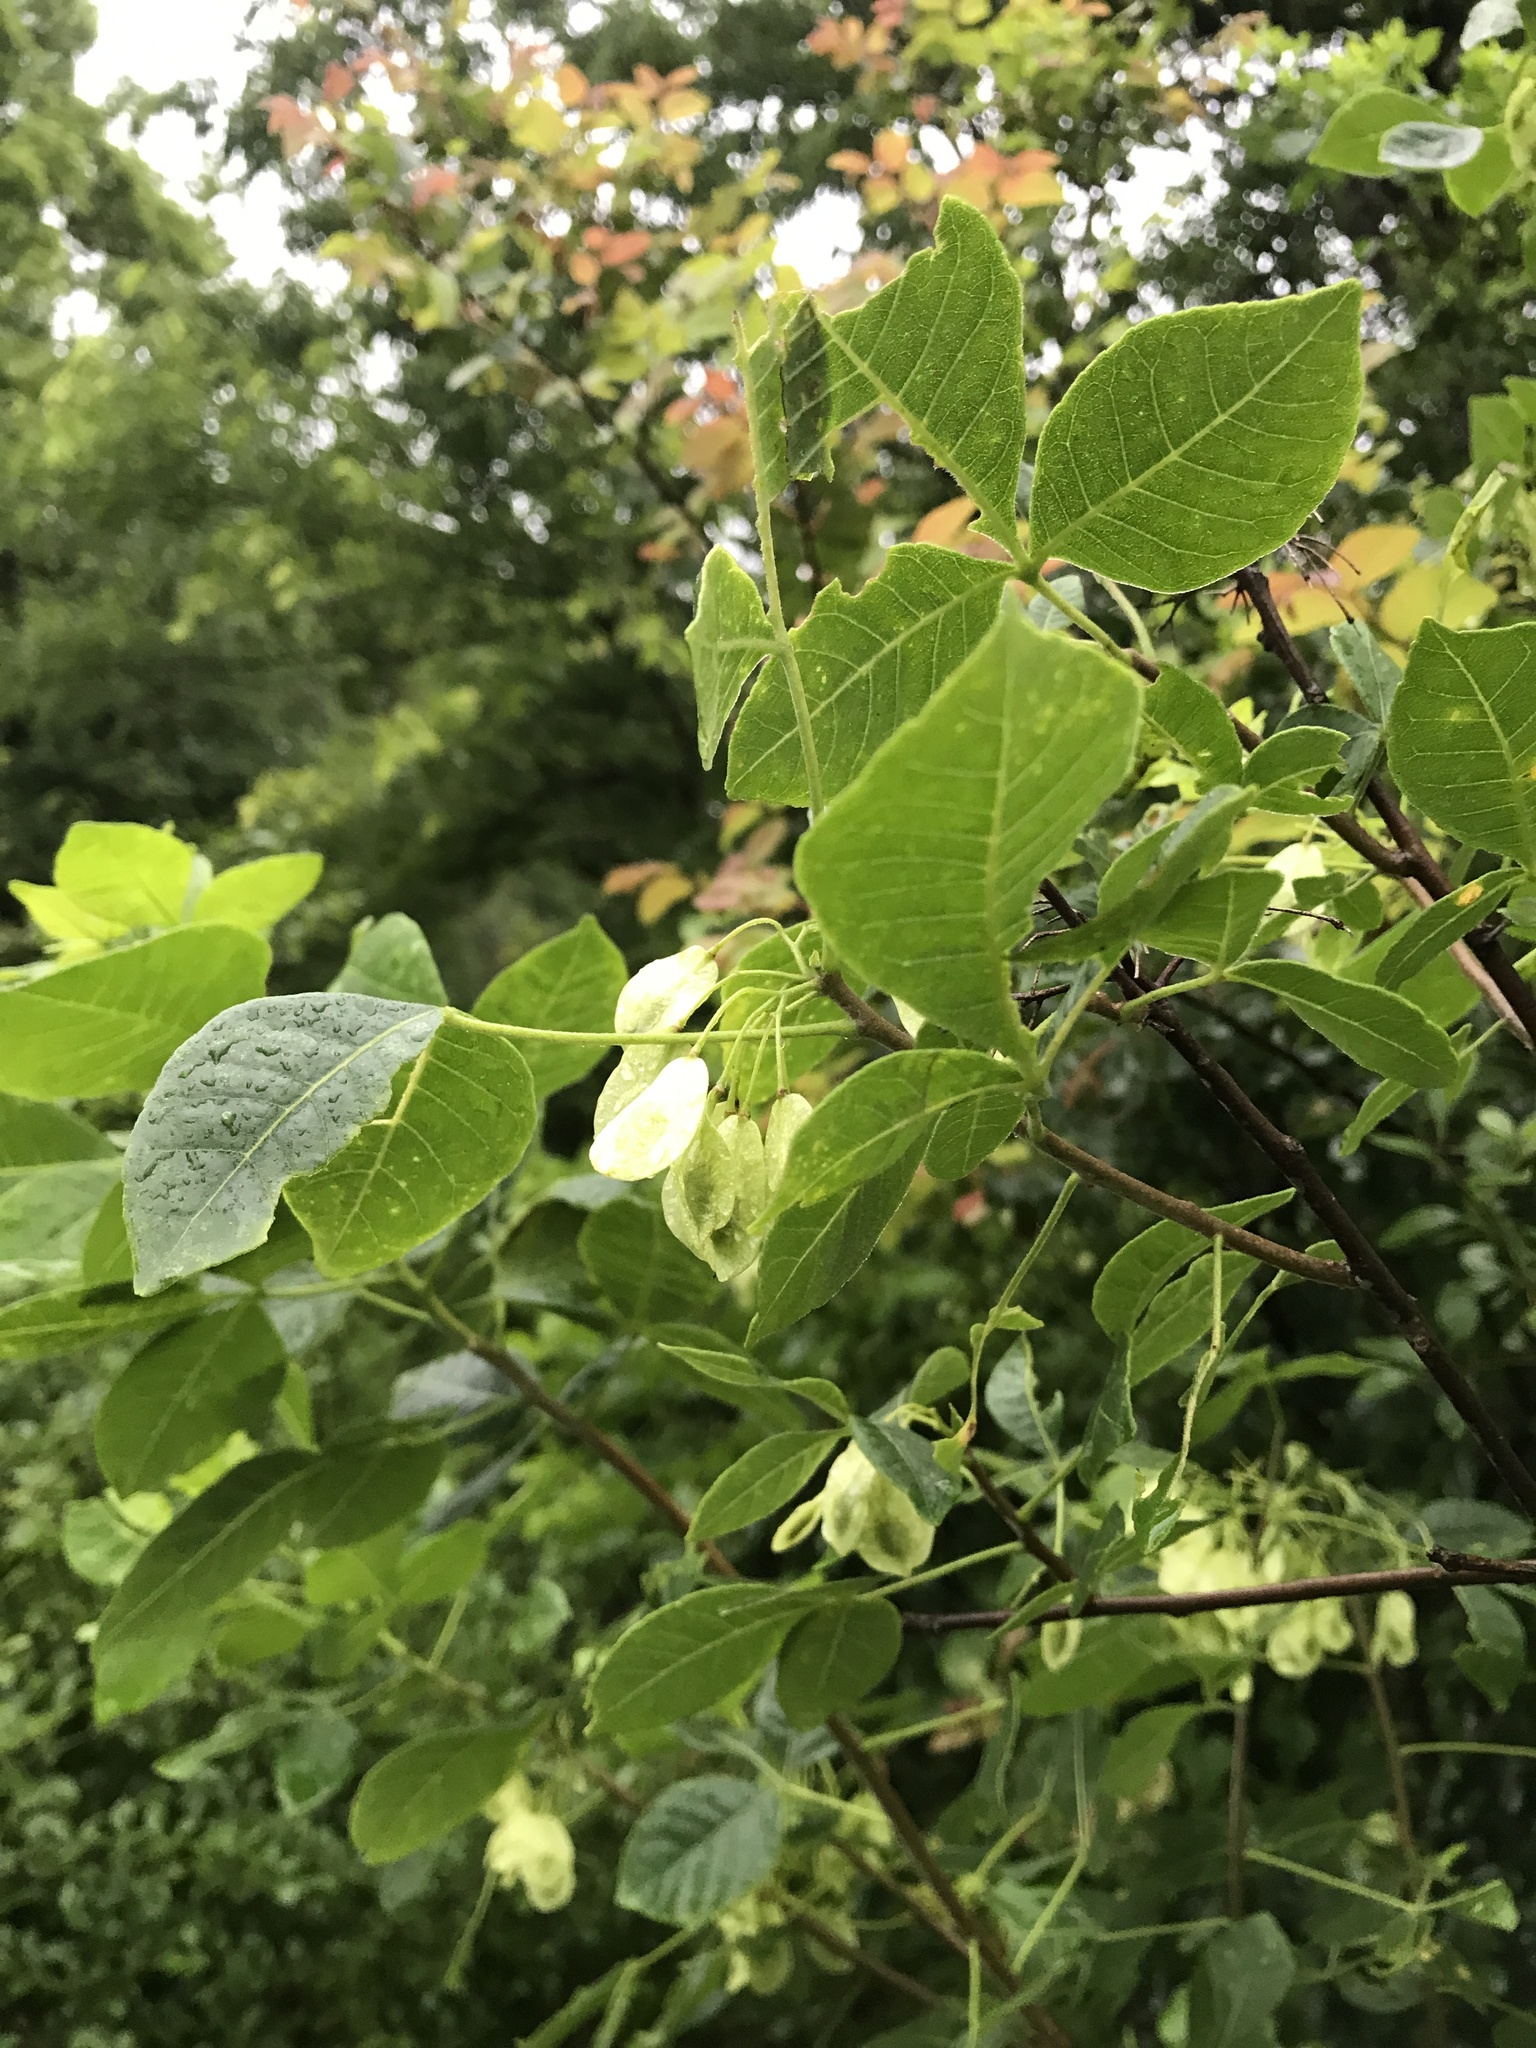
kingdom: Plantae
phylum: Tracheophyta
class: Magnoliopsida
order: Sapindales
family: Rutaceae
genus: Ptelea
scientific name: Ptelea trifoliata
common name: Common hop-tree
